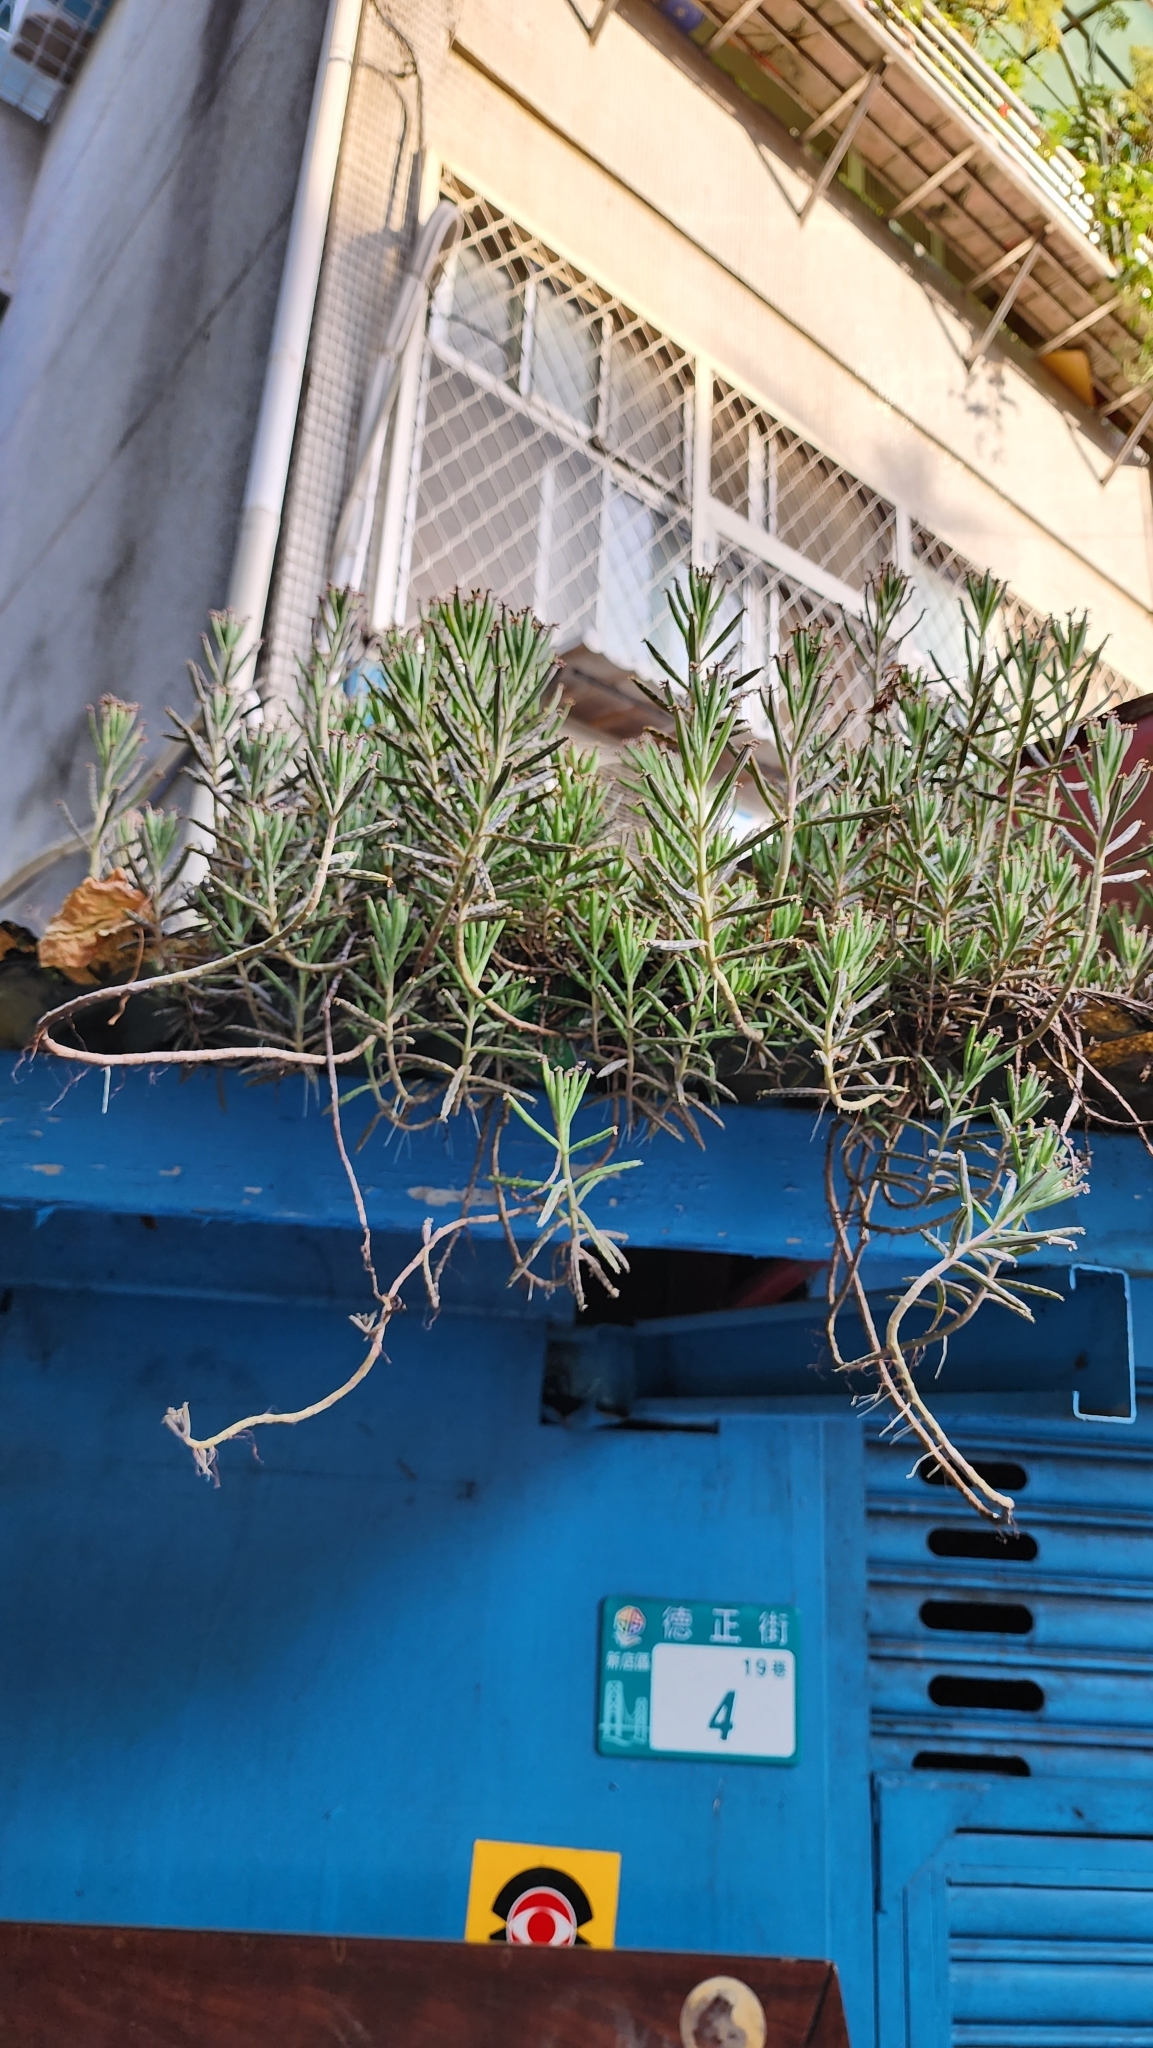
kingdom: Plantae
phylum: Tracheophyta
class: Magnoliopsida
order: Saxifragales
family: Crassulaceae
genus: Kalanchoe
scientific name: Kalanchoe delagoensis
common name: Chandelier plant
